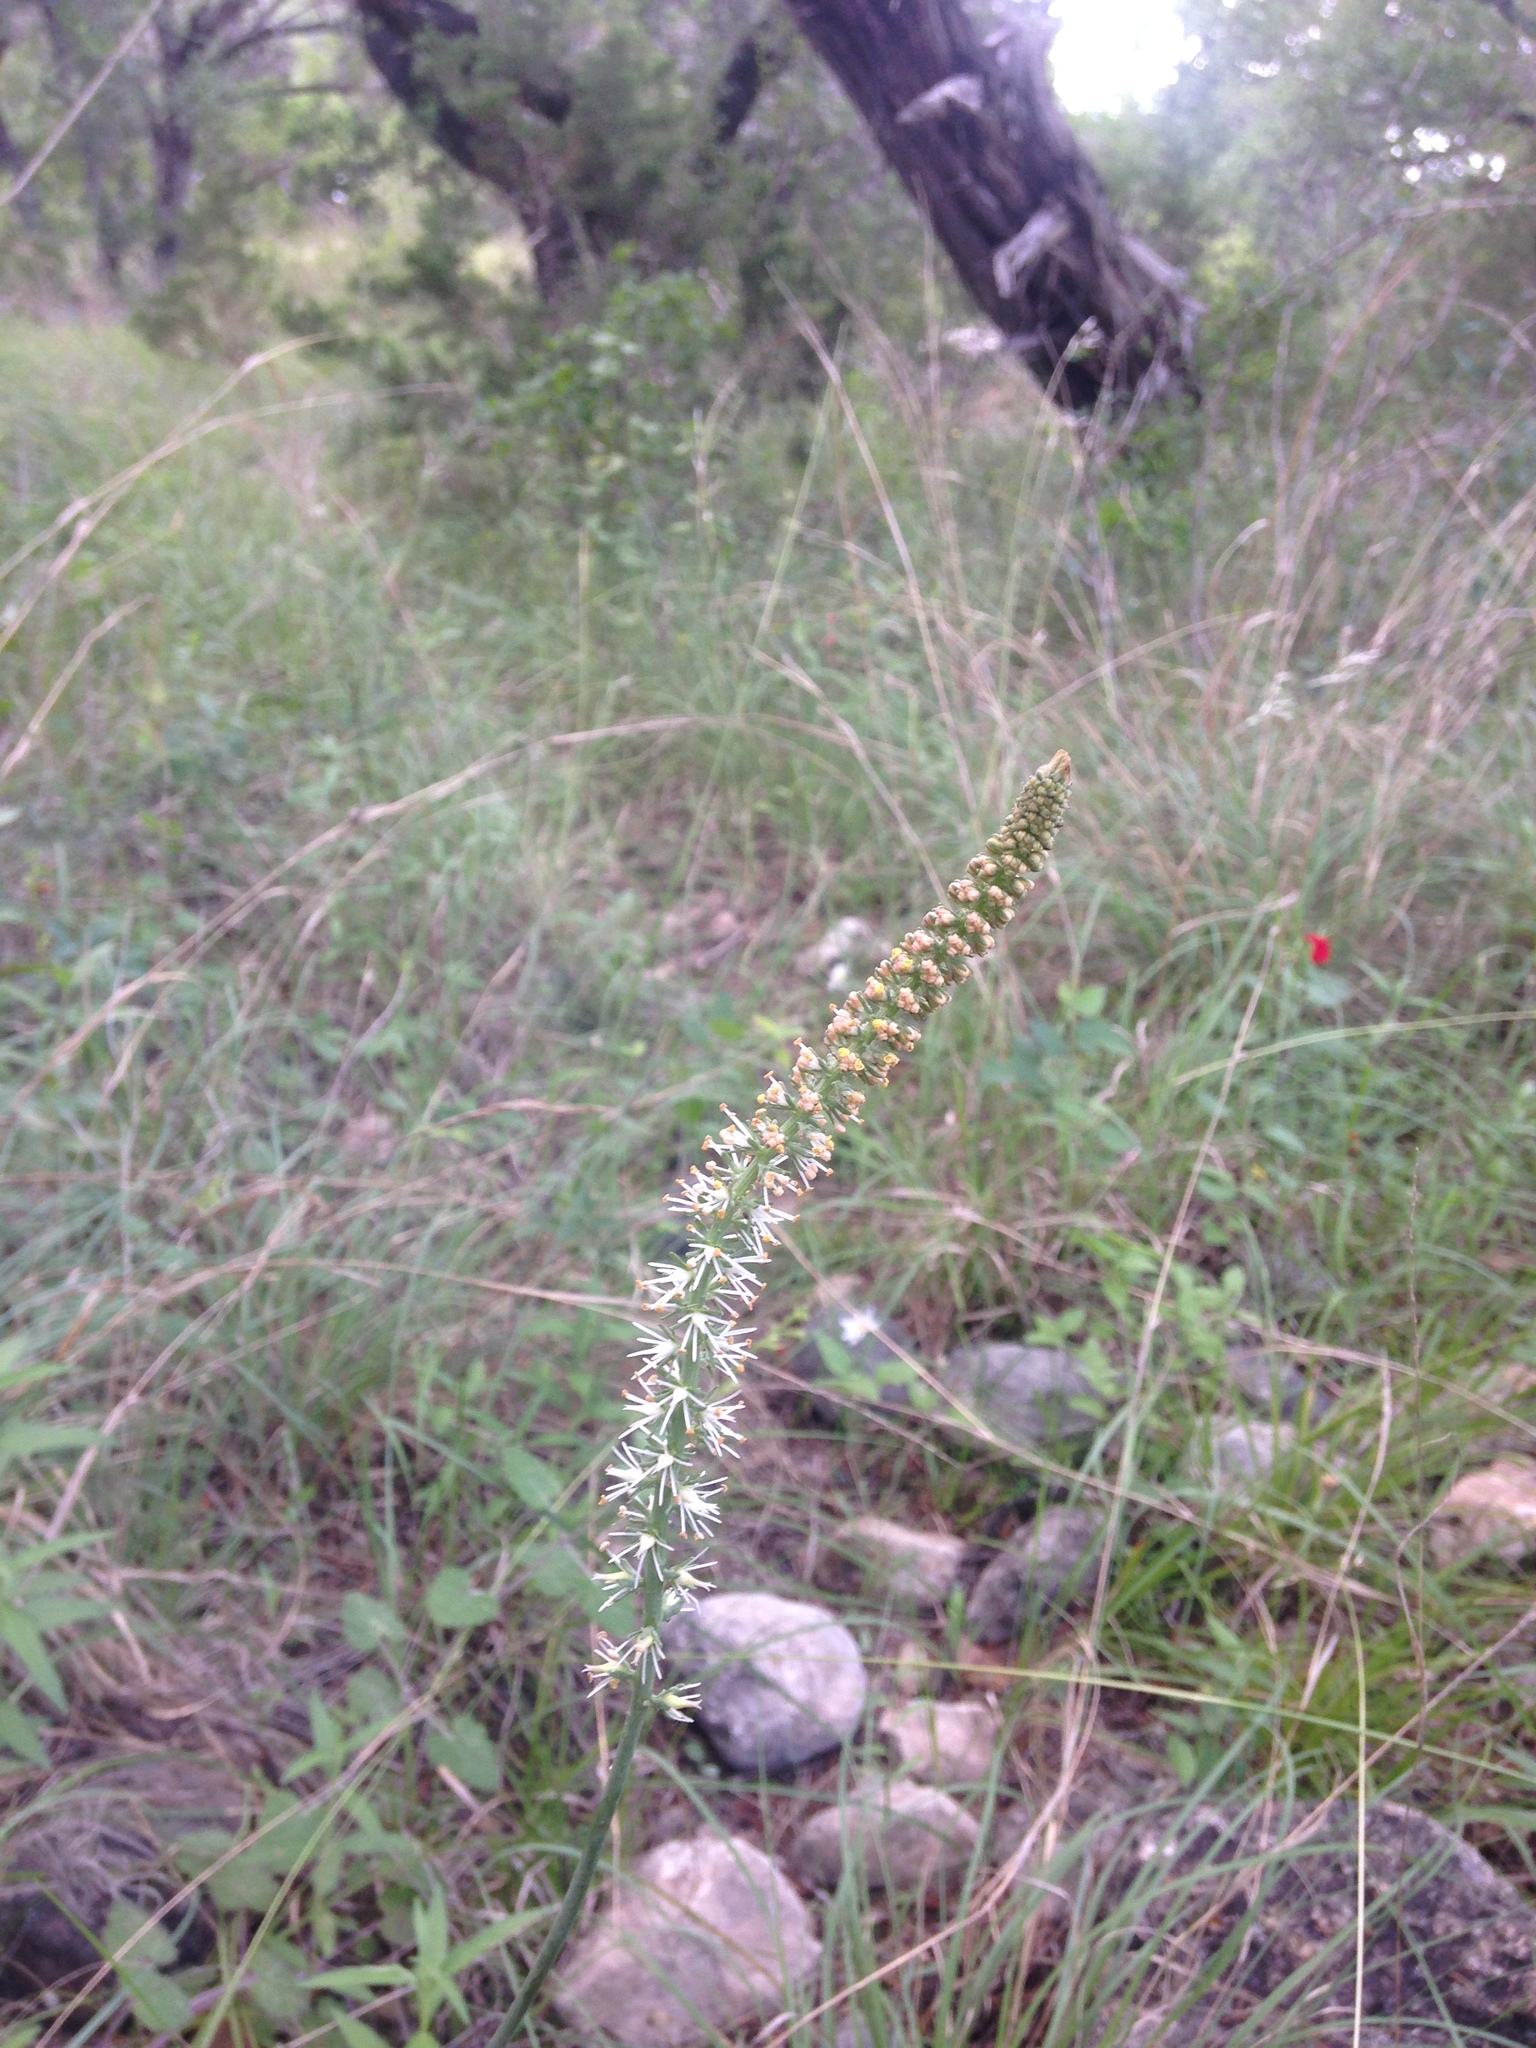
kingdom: Plantae
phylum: Tracheophyta
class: Liliopsida
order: Liliales
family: Melanthiaceae
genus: Schoenocaulon
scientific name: Schoenocaulon texanum
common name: Texas feather-shank
